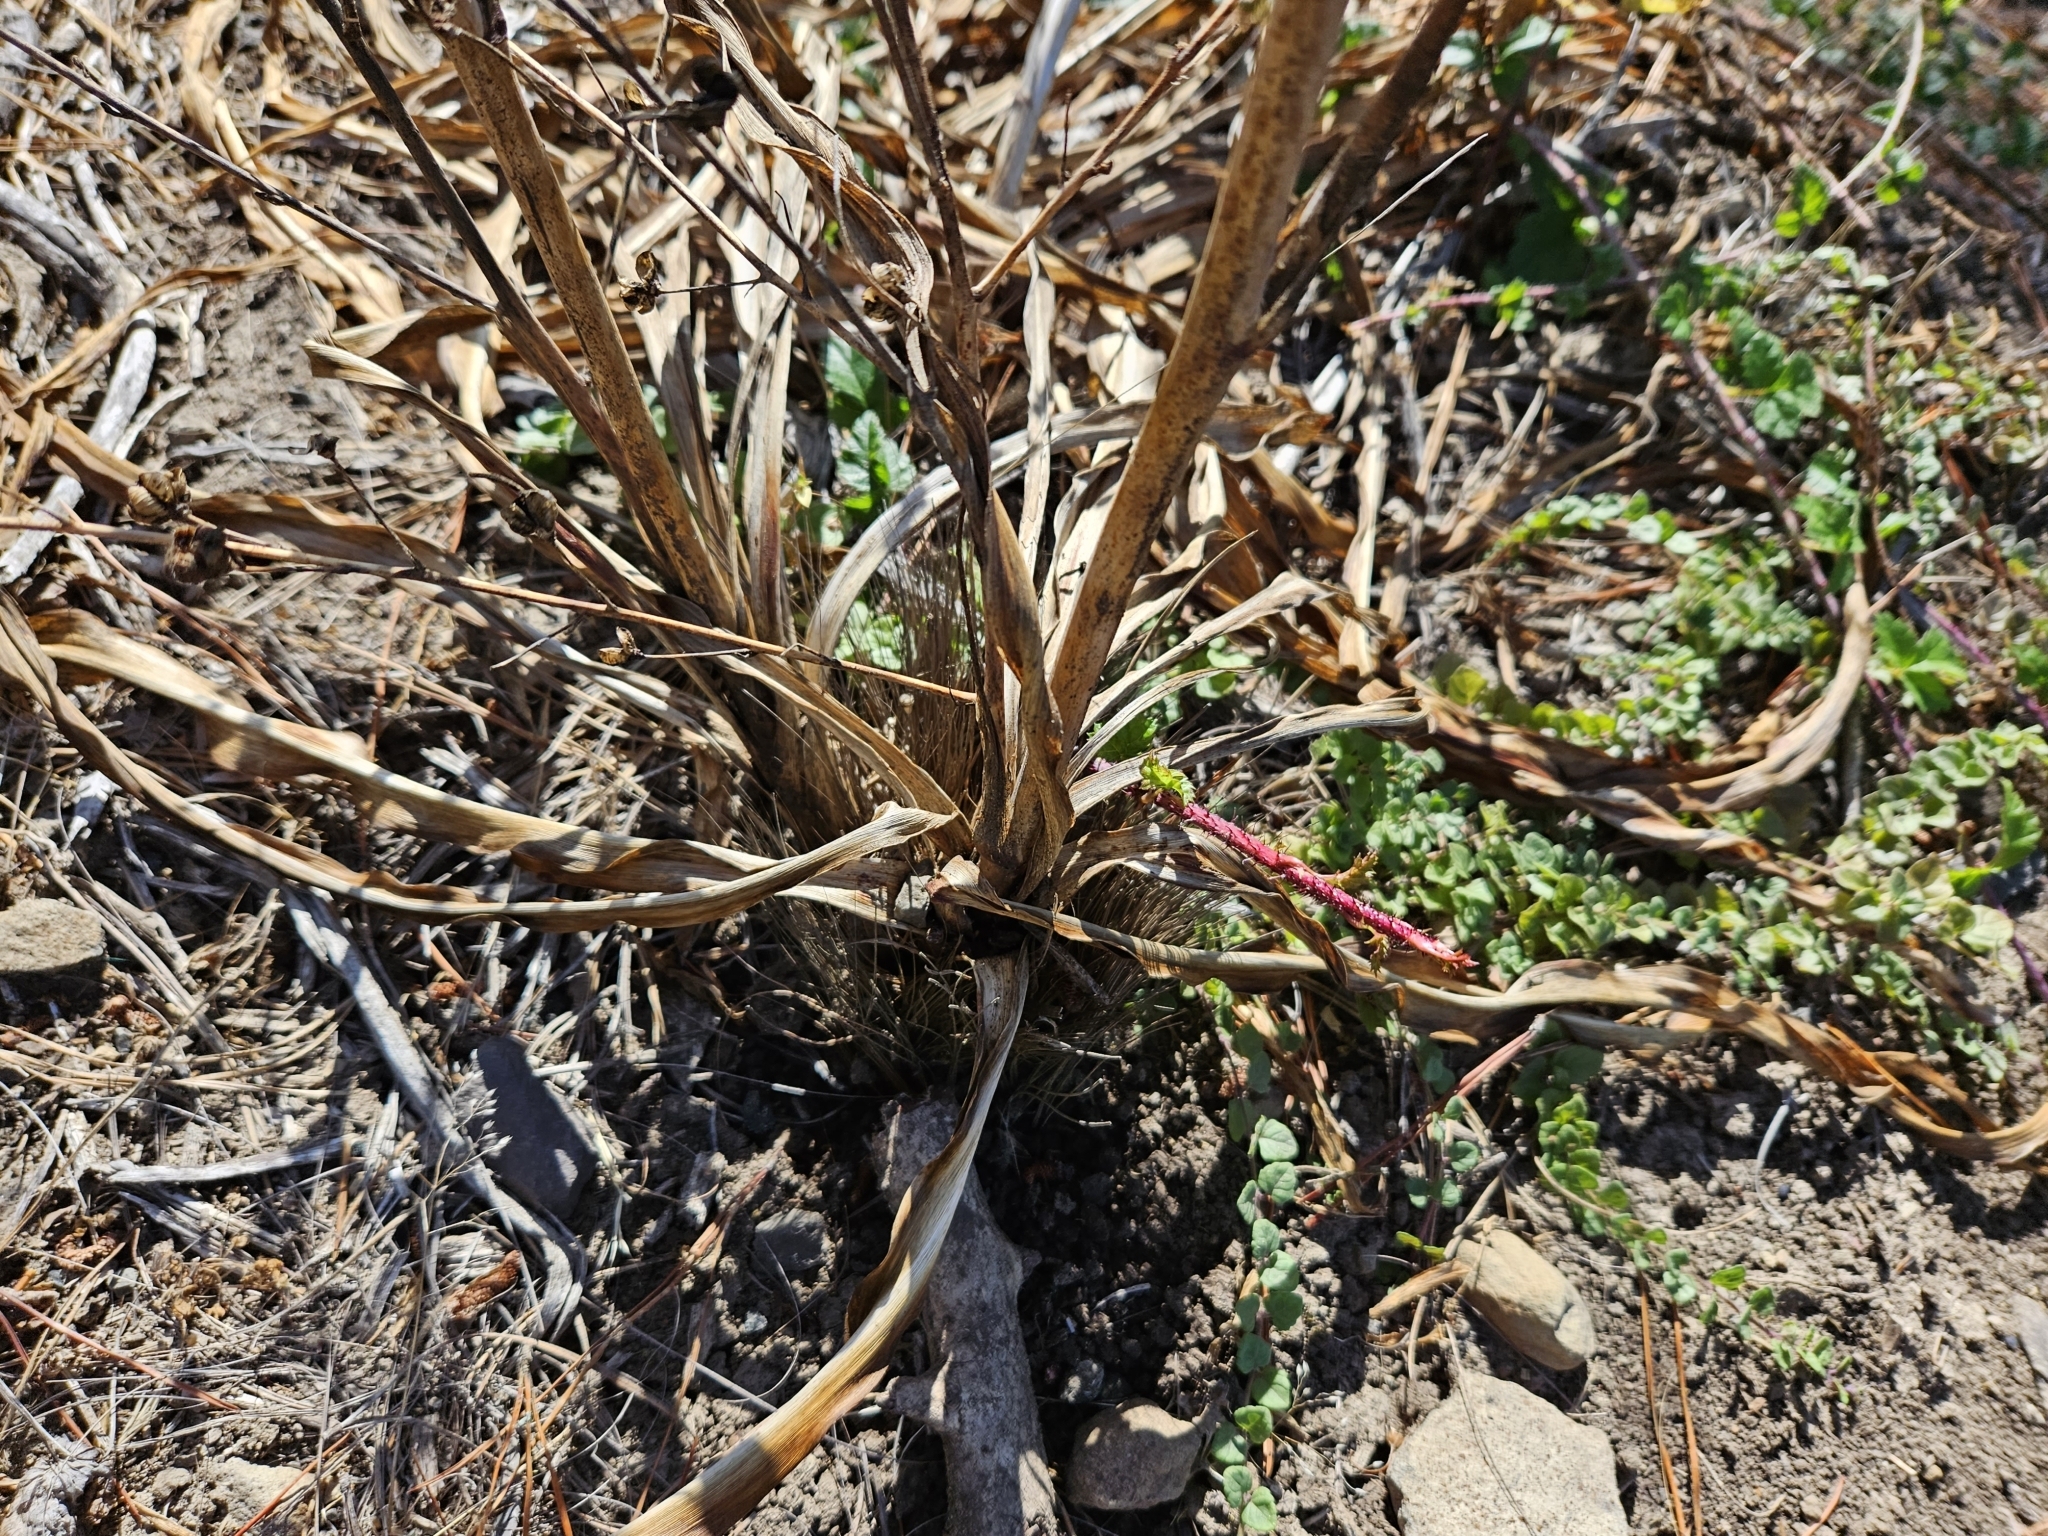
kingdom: Plantae
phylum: Tracheophyta
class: Liliopsida
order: Asparagales
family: Asparagaceae
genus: Chlorogalum
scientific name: Chlorogalum pomeridianum
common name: Amole
